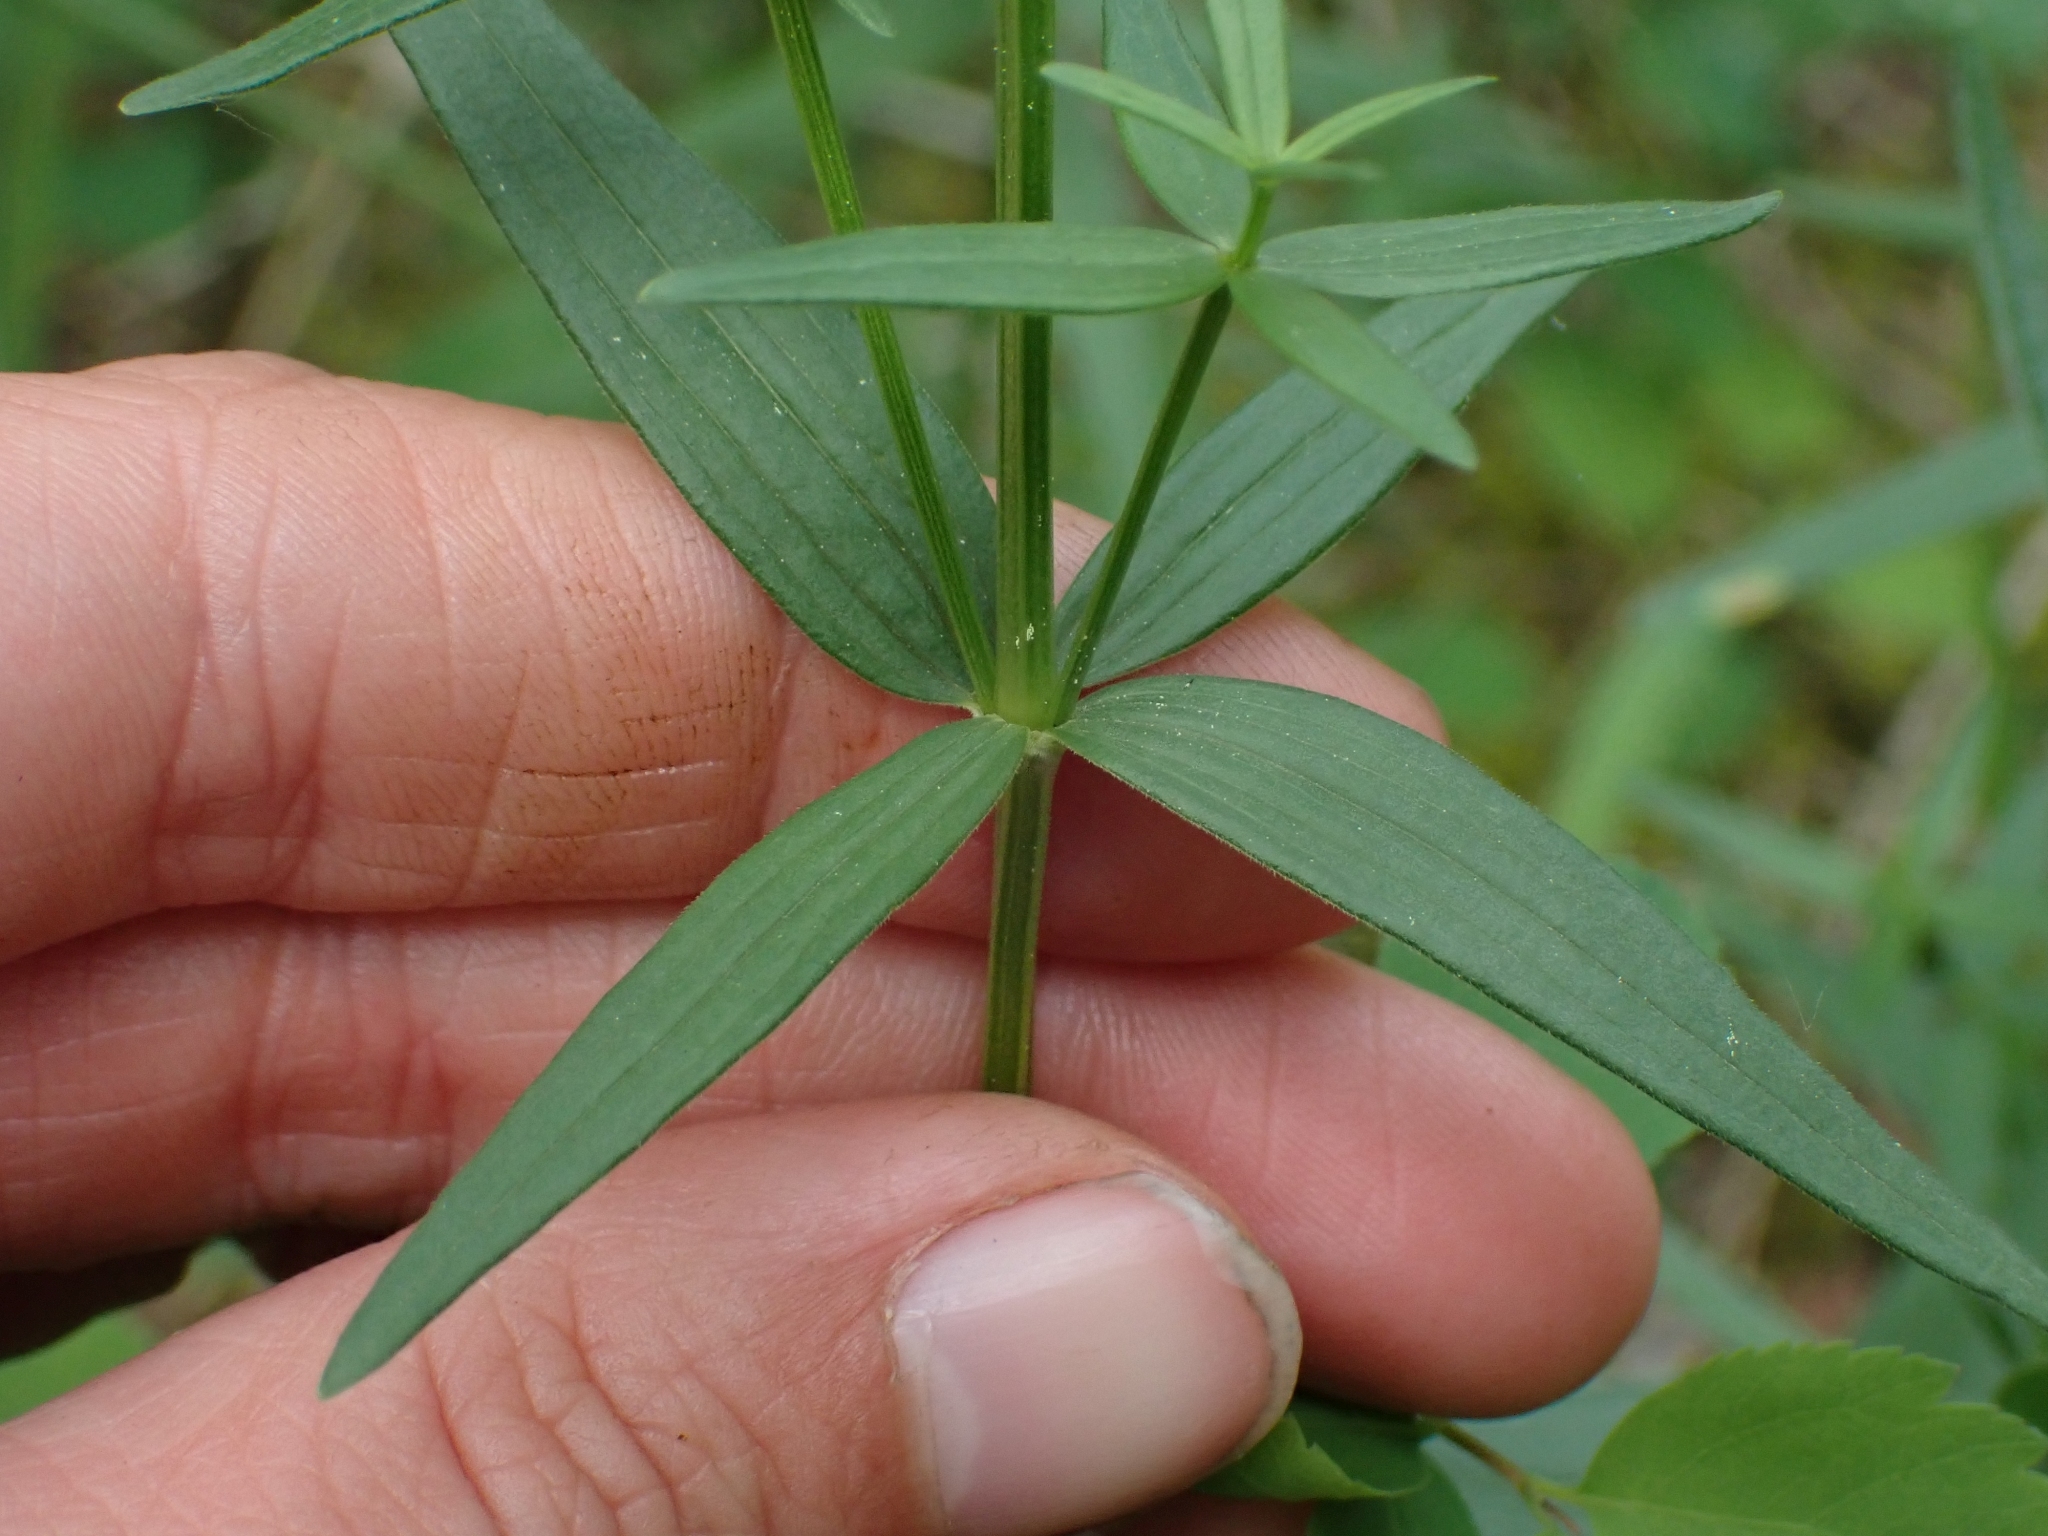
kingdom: Plantae
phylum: Tracheophyta
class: Magnoliopsida
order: Gentianales
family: Rubiaceae
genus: Galium
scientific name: Galium boreale
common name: Northern bedstraw
